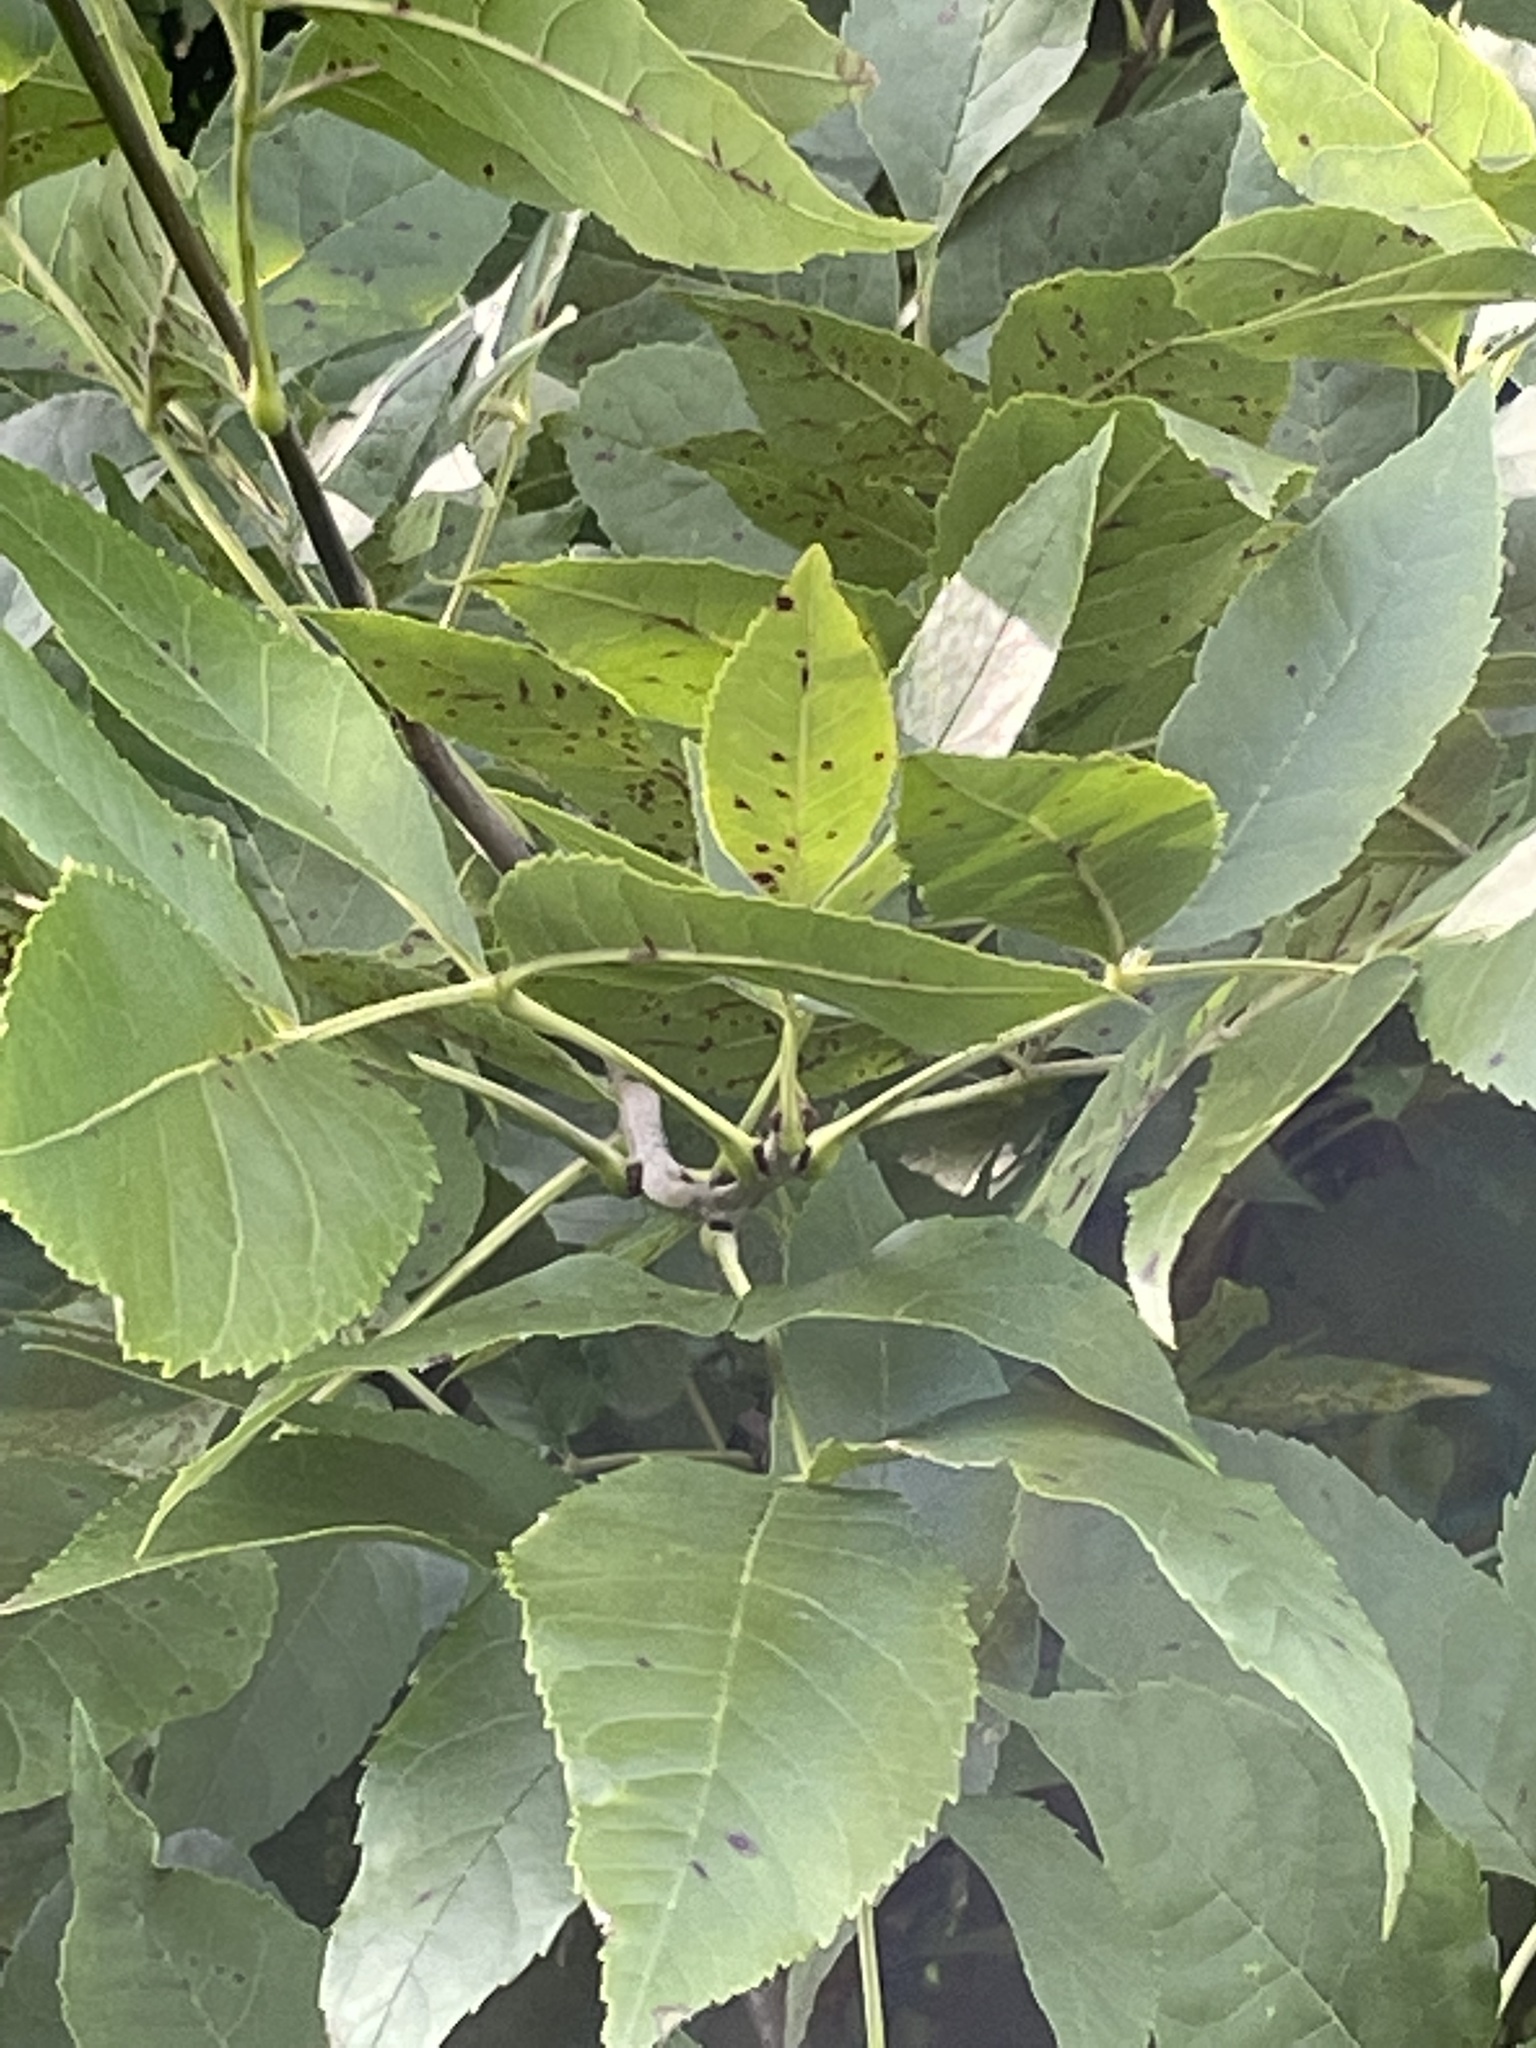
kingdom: Plantae
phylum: Tracheophyta
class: Magnoliopsida
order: Lamiales
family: Oleaceae
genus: Fraxinus
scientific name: Fraxinus pennsylvanica
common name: Green ash
